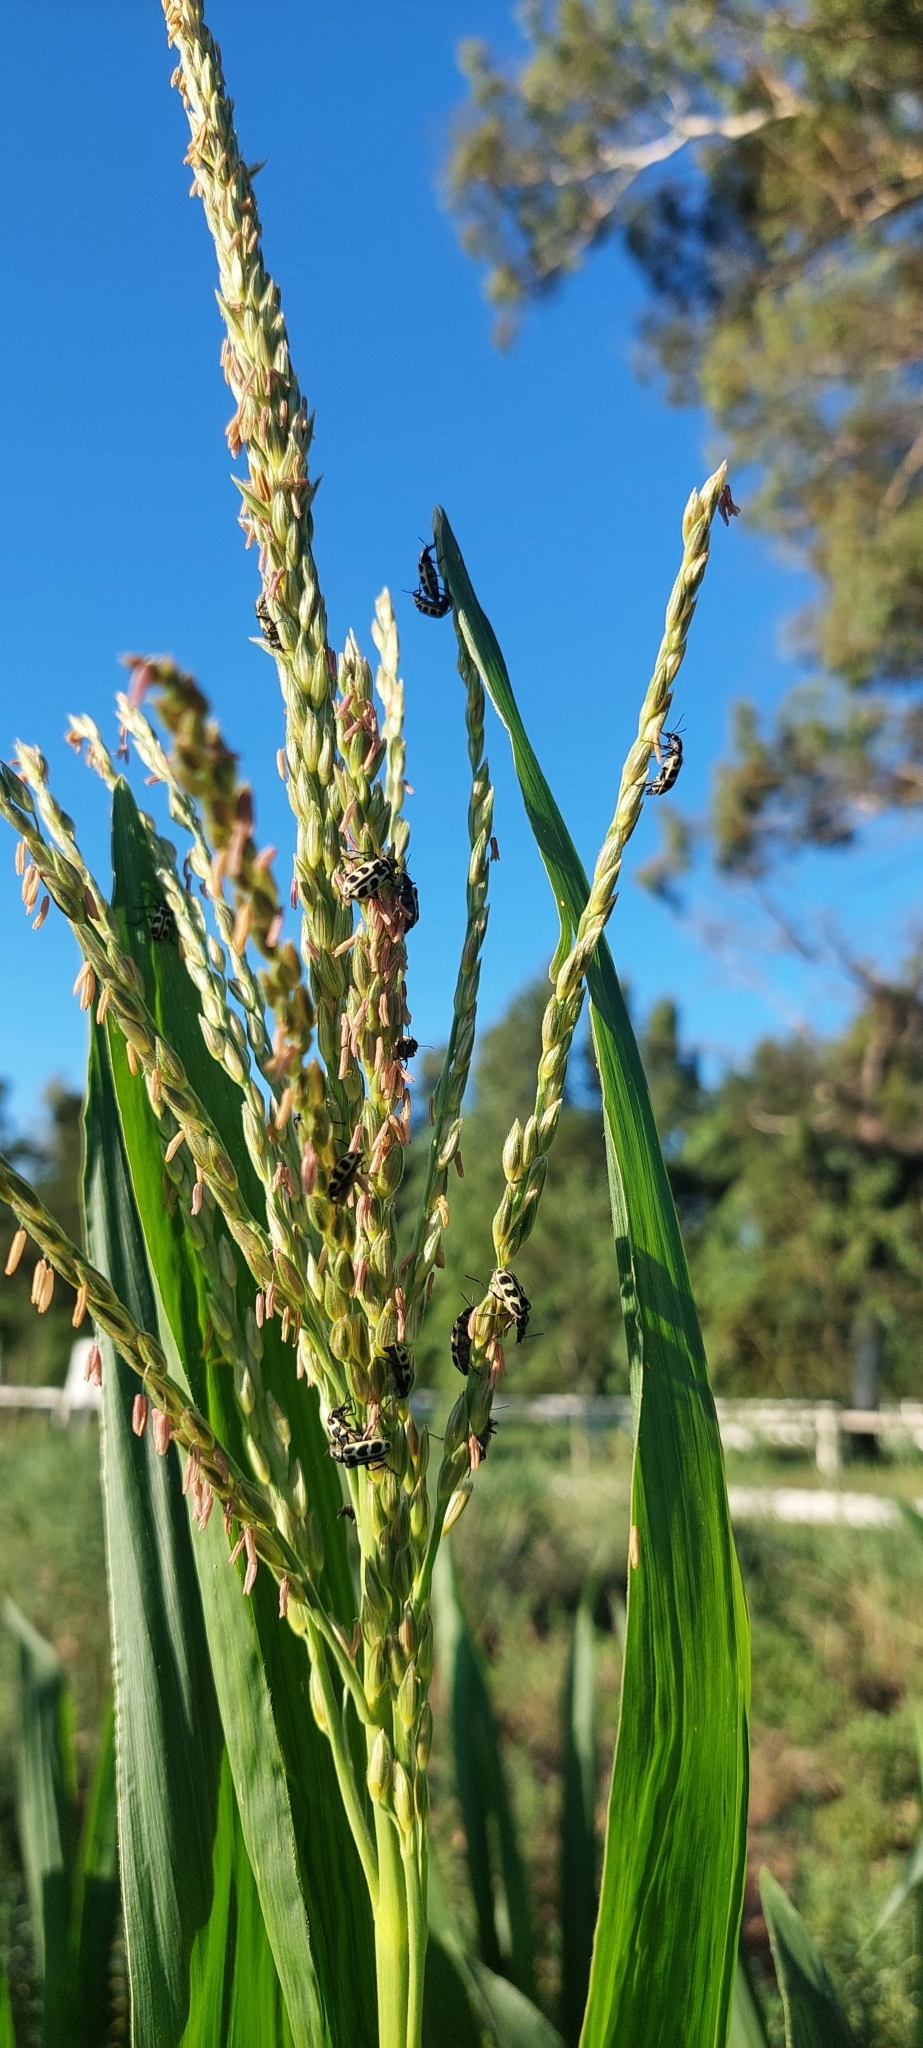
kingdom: Animalia
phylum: Arthropoda
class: Insecta
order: Coleoptera
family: Melyridae
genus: Astylus
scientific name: Astylus atromaculatus
